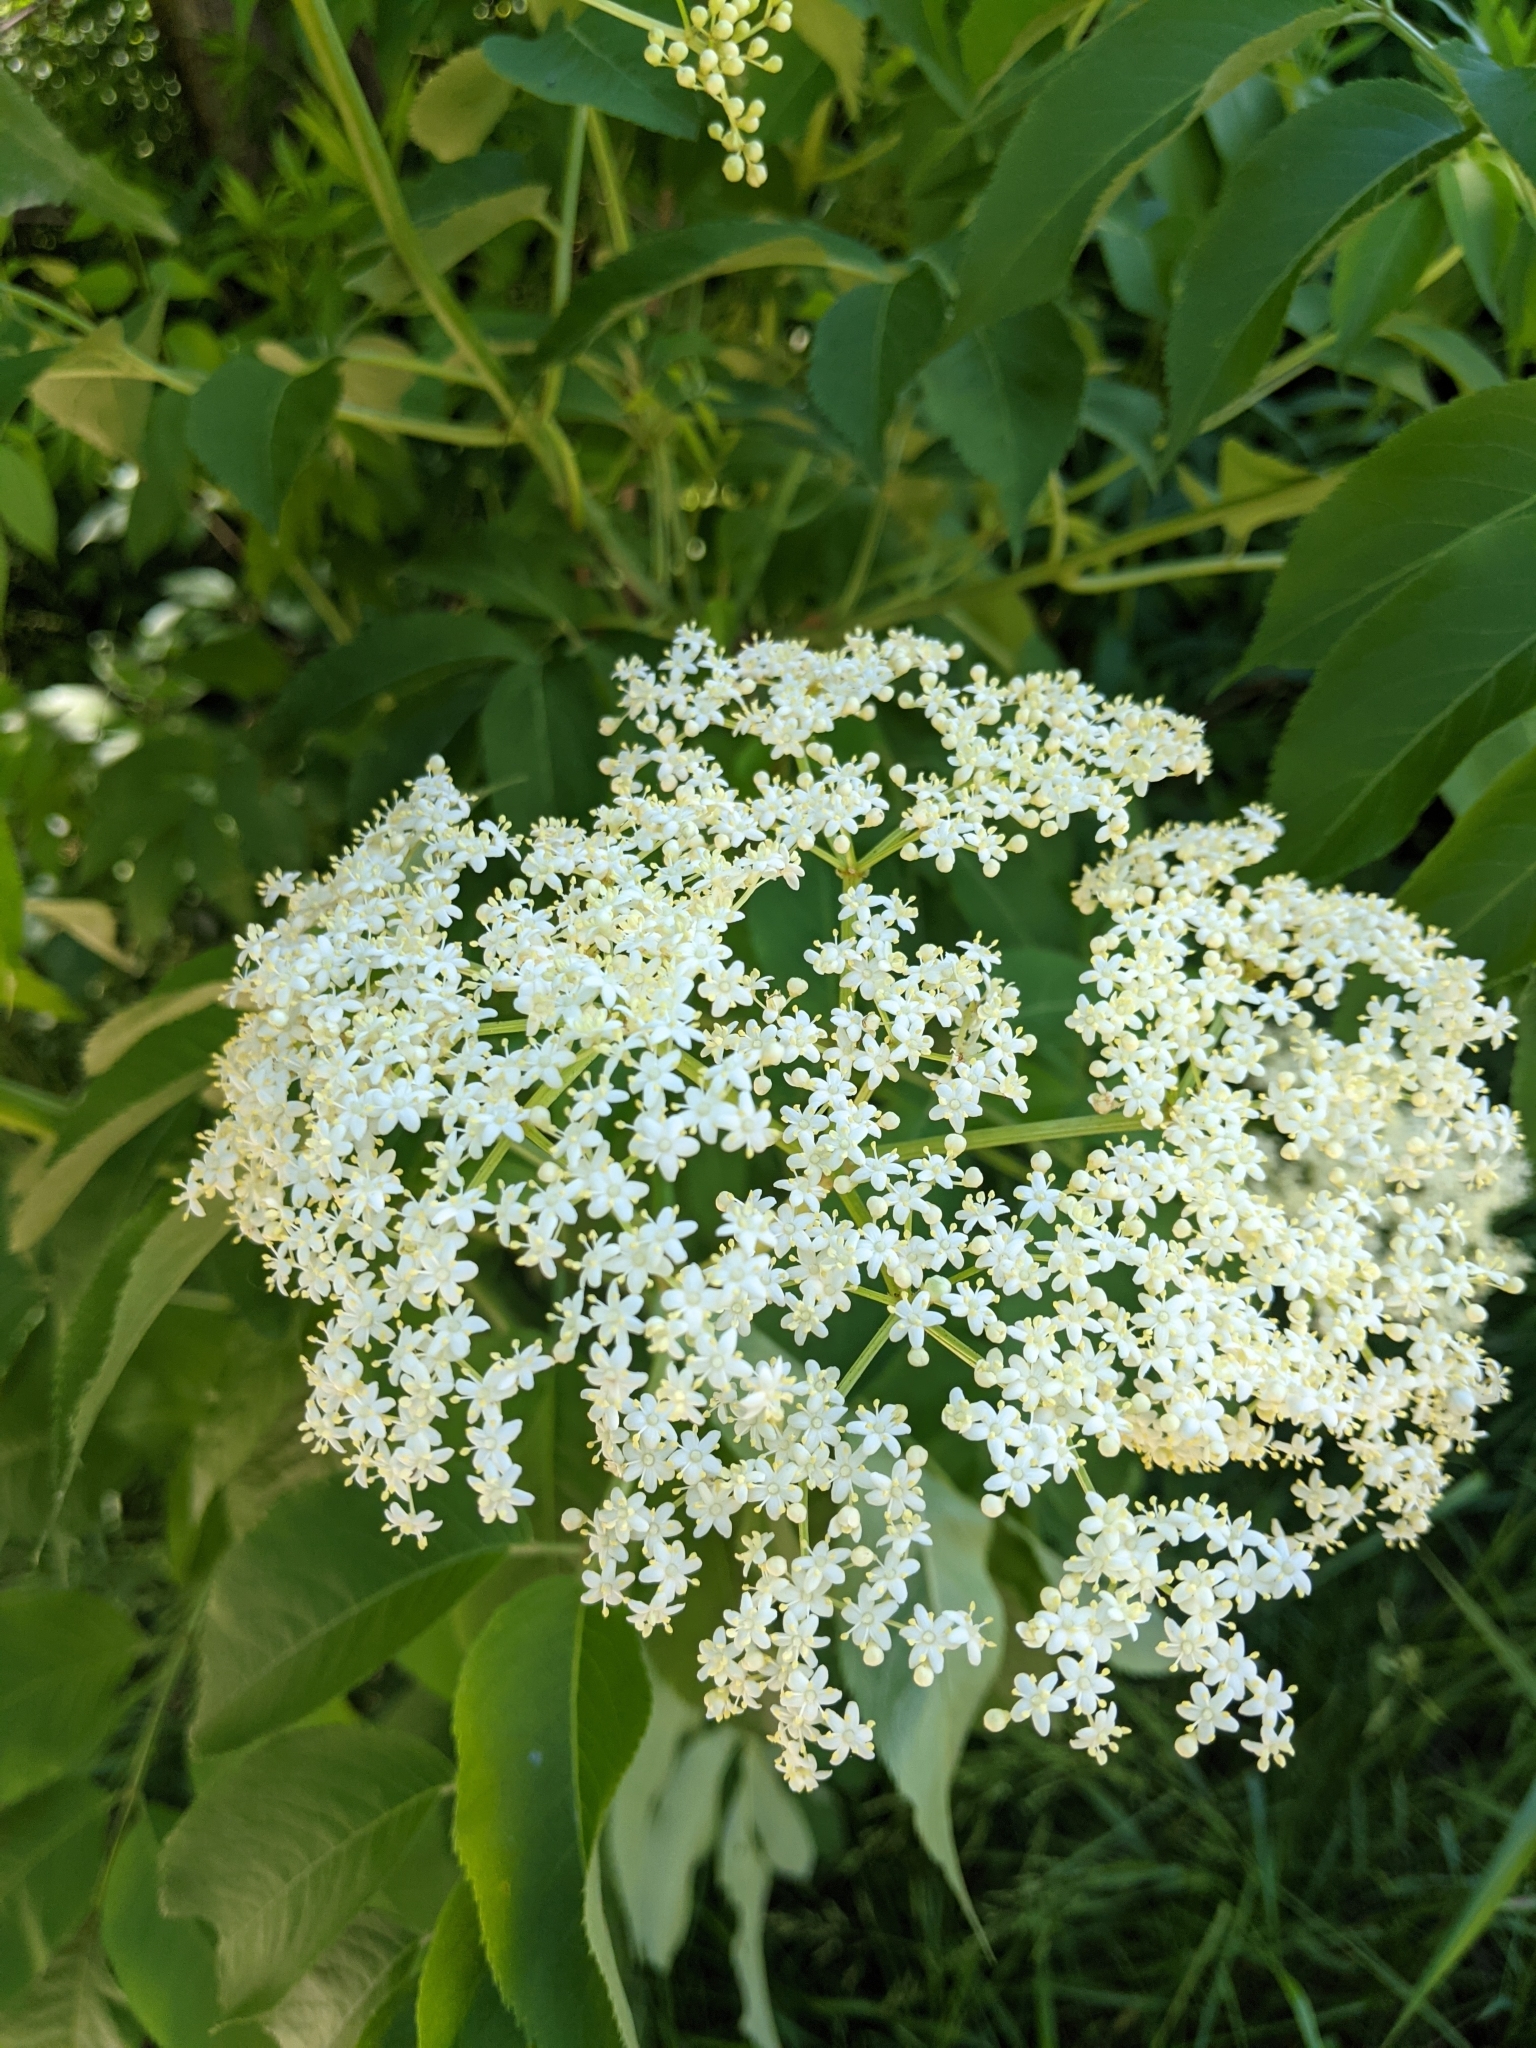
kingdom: Plantae
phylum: Tracheophyta
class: Magnoliopsida
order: Dipsacales
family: Viburnaceae
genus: Sambucus
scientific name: Sambucus canadensis
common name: American elder
